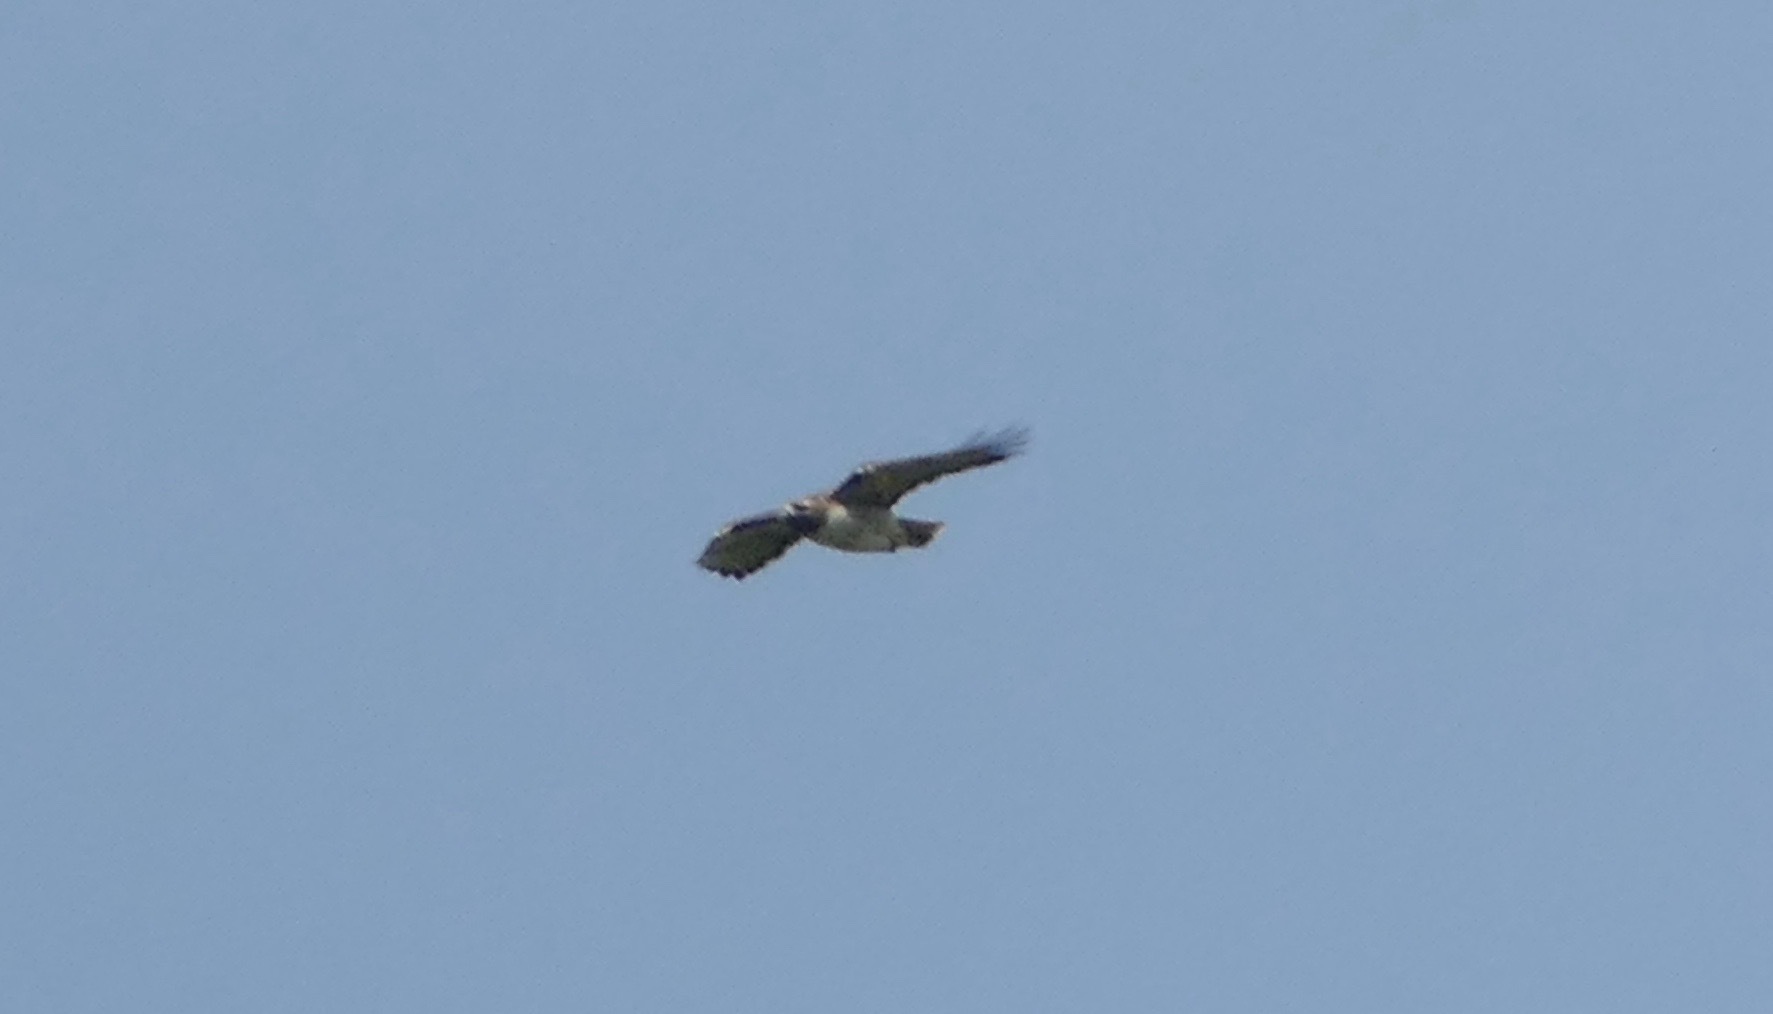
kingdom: Animalia
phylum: Chordata
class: Aves
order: Accipitriformes
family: Accipitridae
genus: Buteo
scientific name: Buteo jamaicensis
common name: Red-tailed hawk
